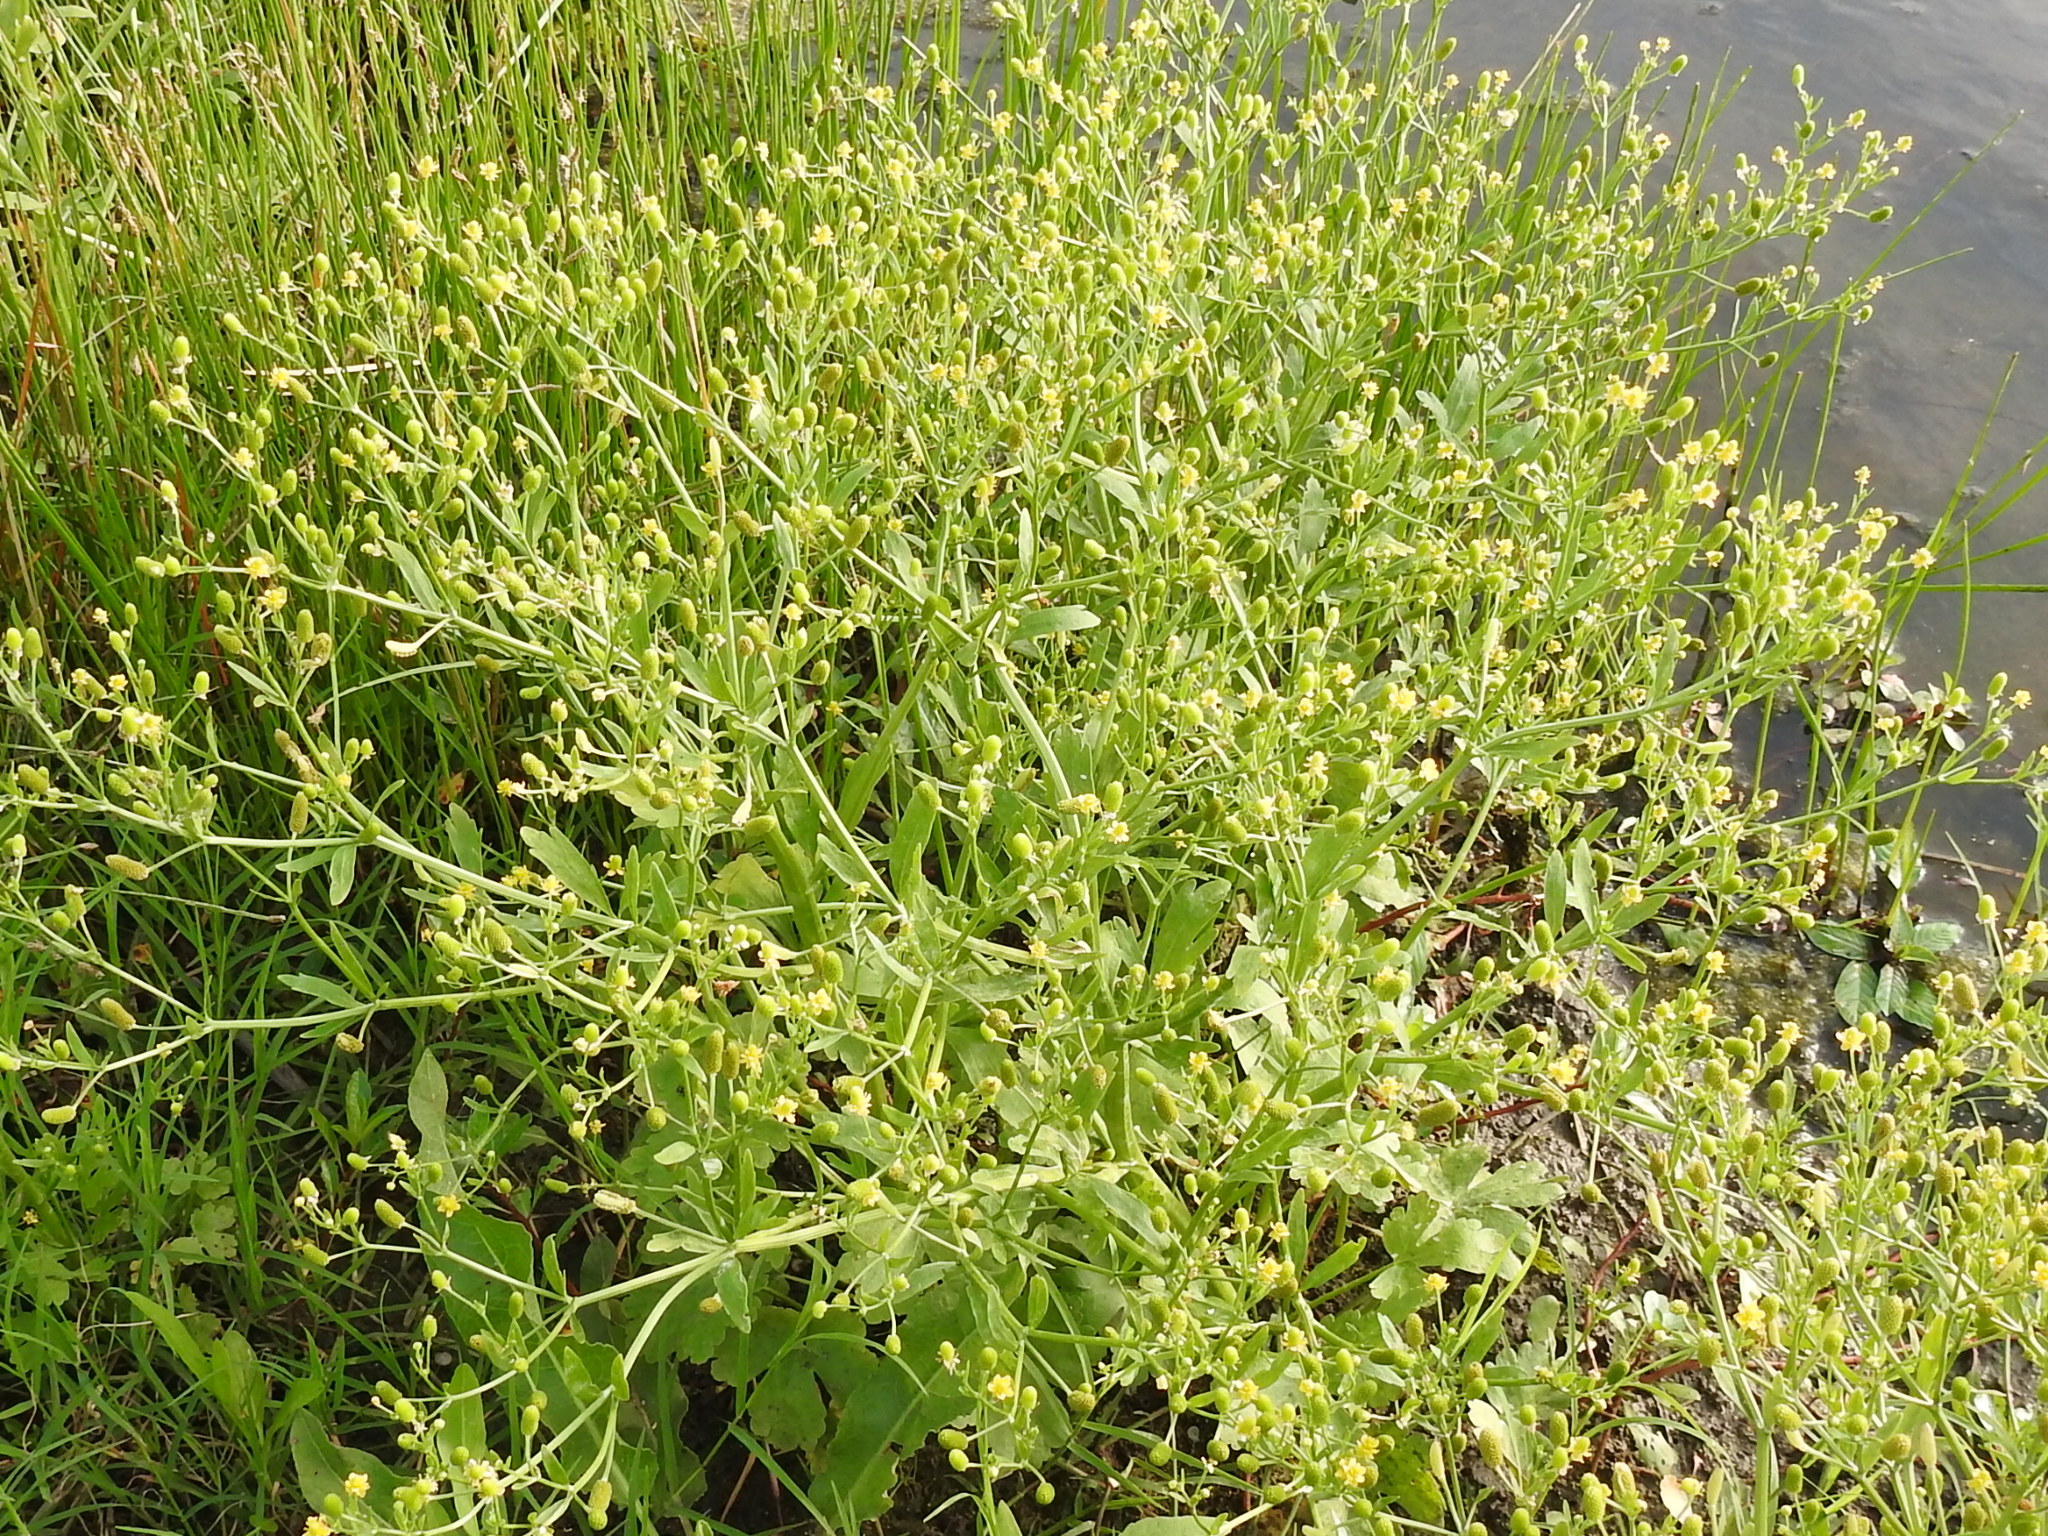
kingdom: Plantae
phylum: Tracheophyta
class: Magnoliopsida
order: Ranunculales
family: Ranunculaceae
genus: Ranunculus
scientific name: Ranunculus sceleratus
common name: Celery-leaved buttercup
